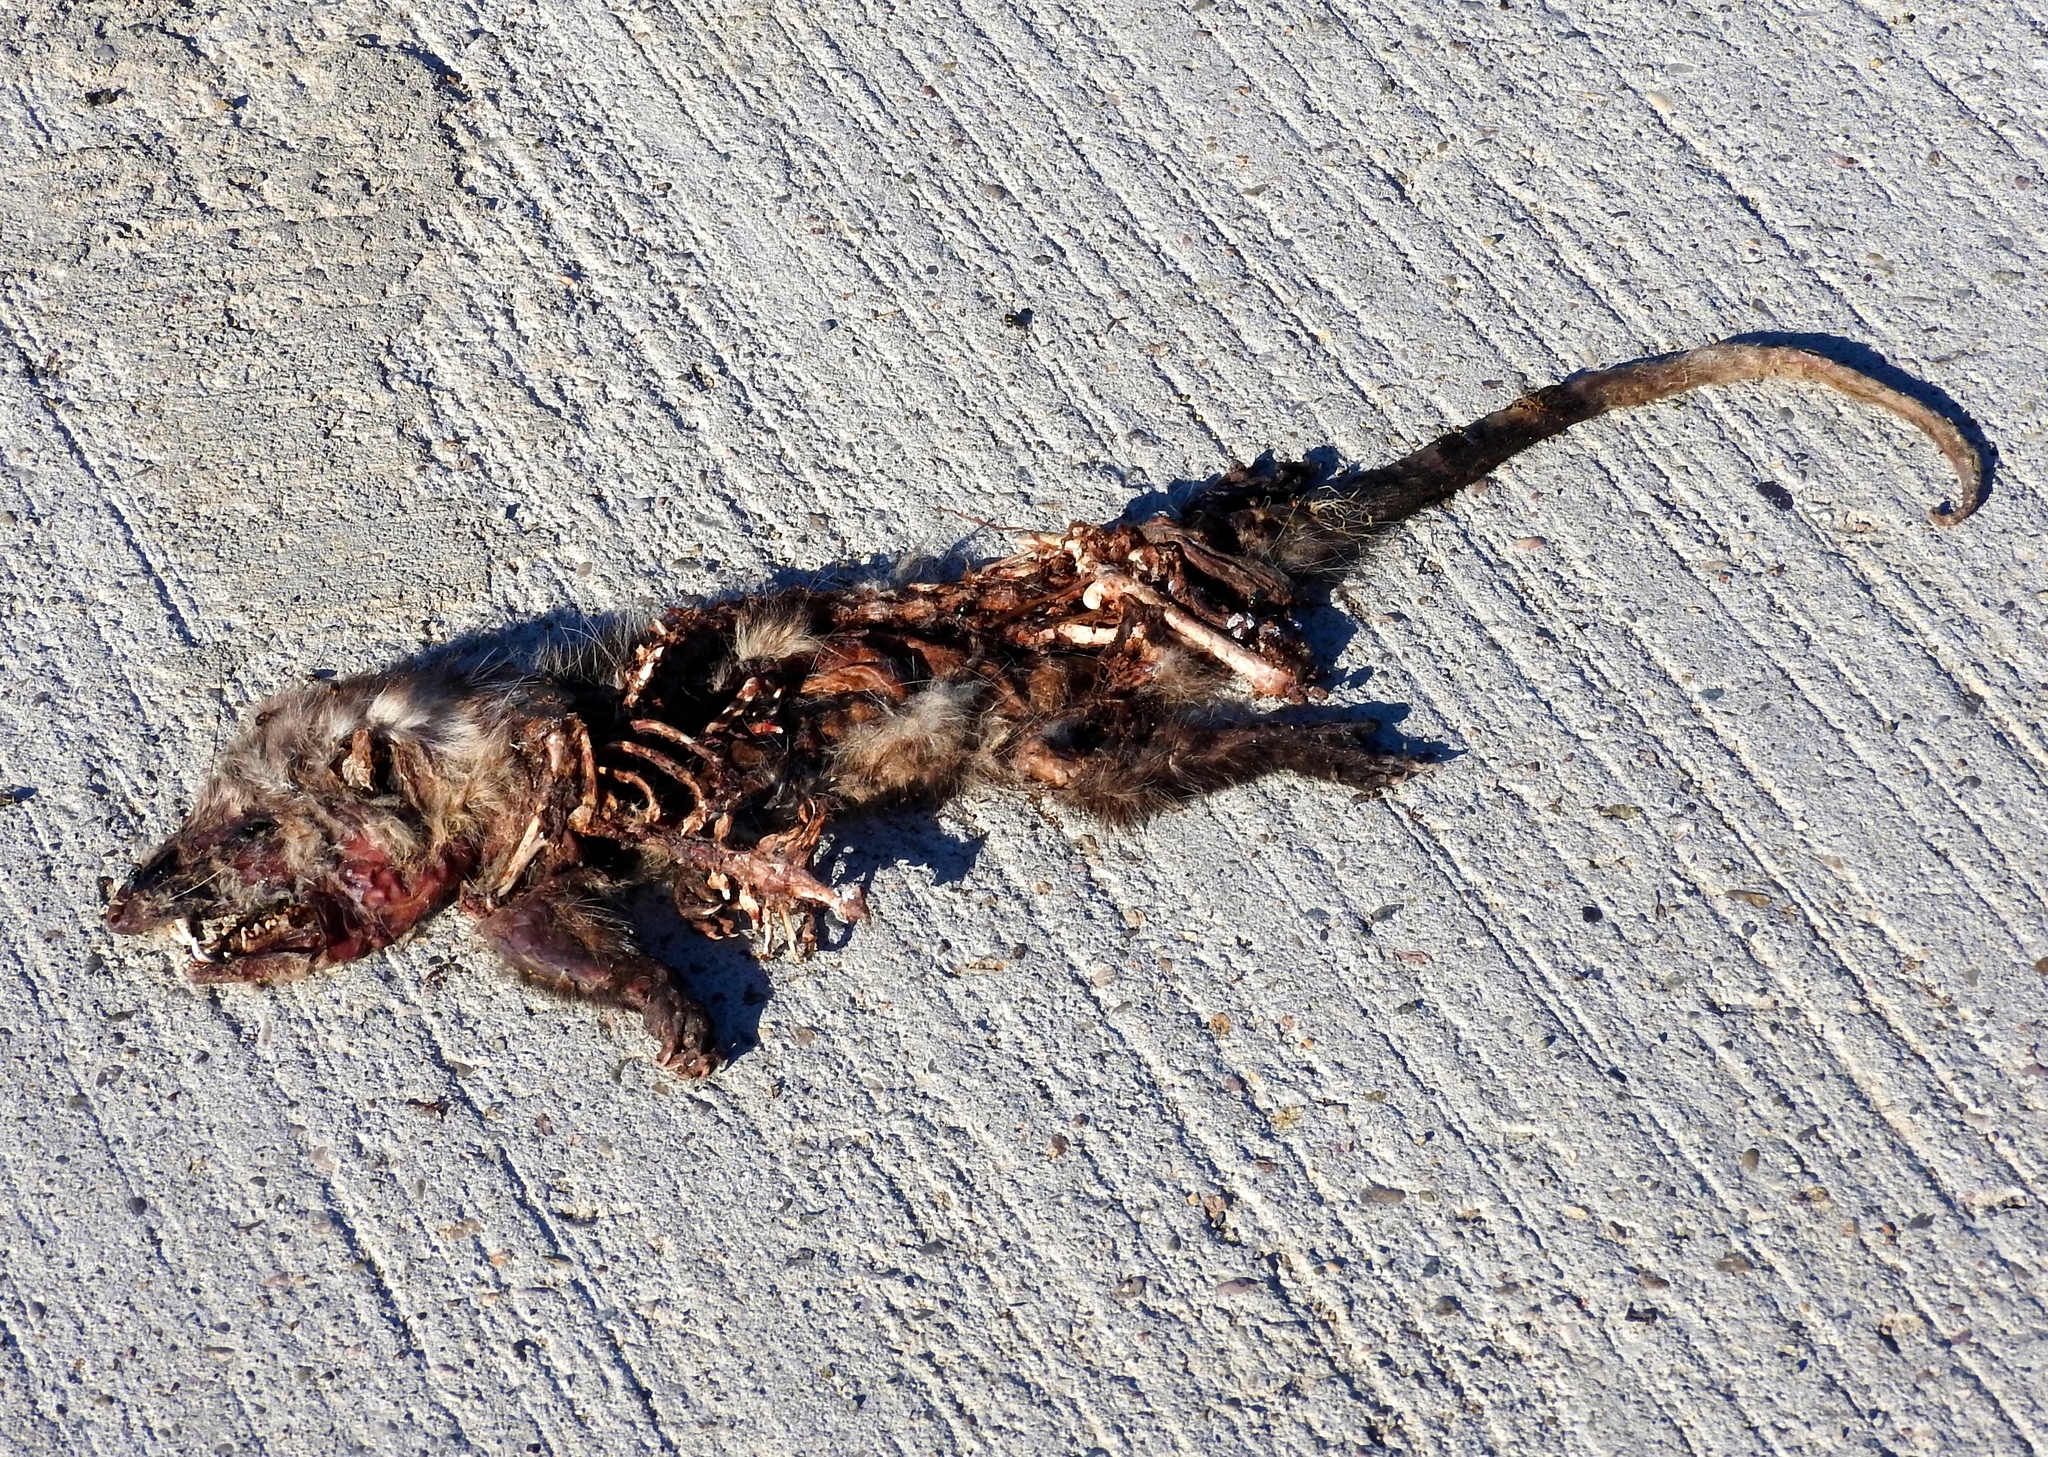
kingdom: Animalia
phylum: Chordata
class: Mammalia
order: Didelphimorphia
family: Didelphidae
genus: Didelphis
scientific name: Didelphis virginiana
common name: Virginia opossum
